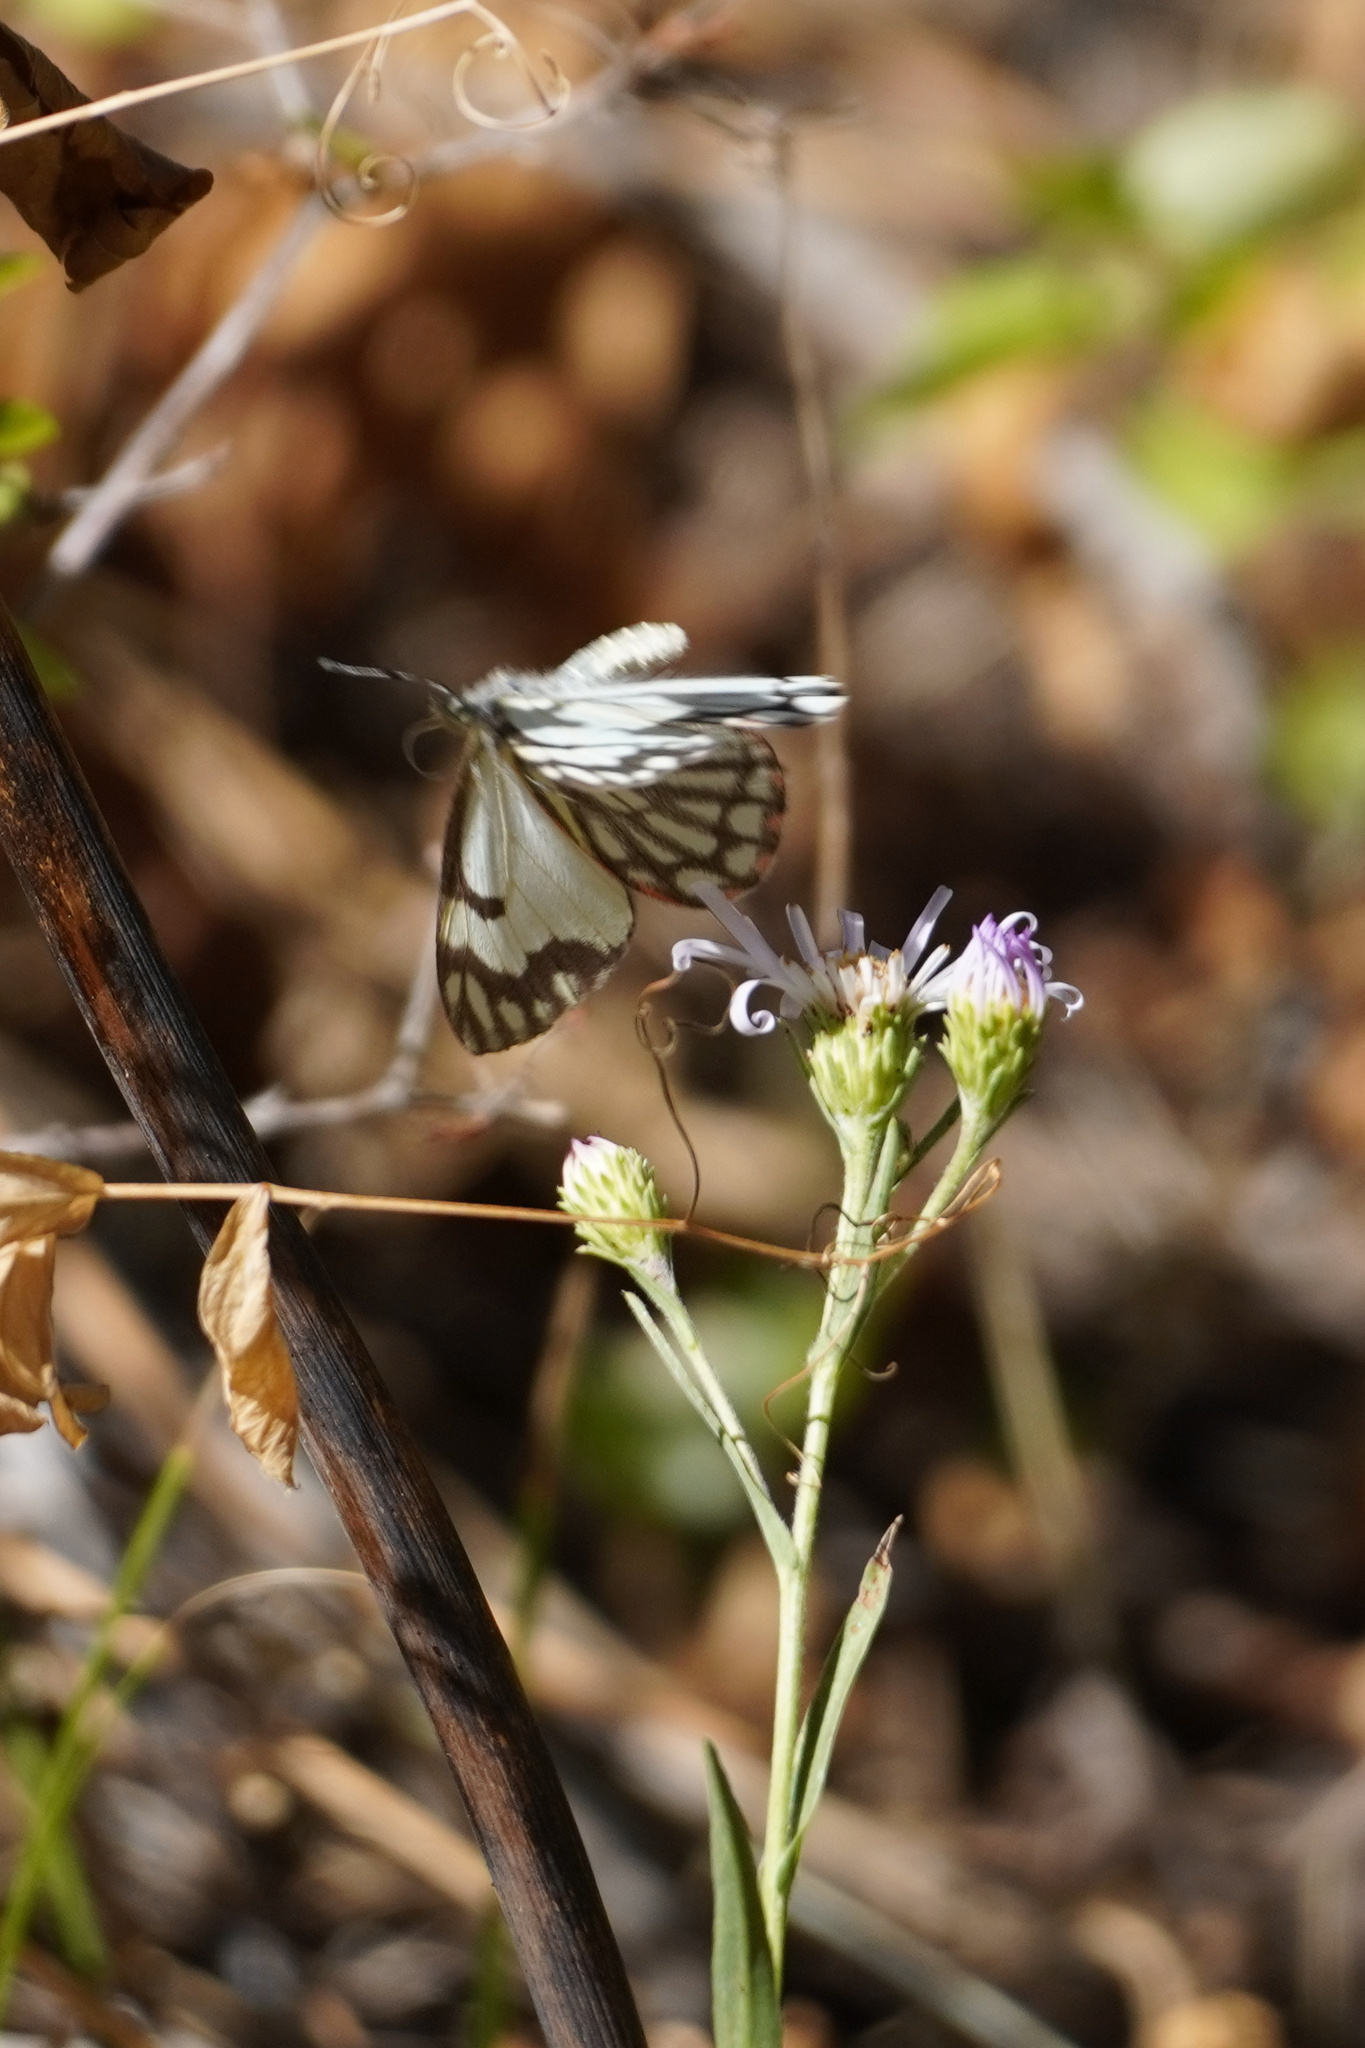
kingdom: Animalia
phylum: Arthropoda
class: Insecta
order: Lepidoptera
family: Pieridae
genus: Neophasia
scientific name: Neophasia menapia
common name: Pine white
